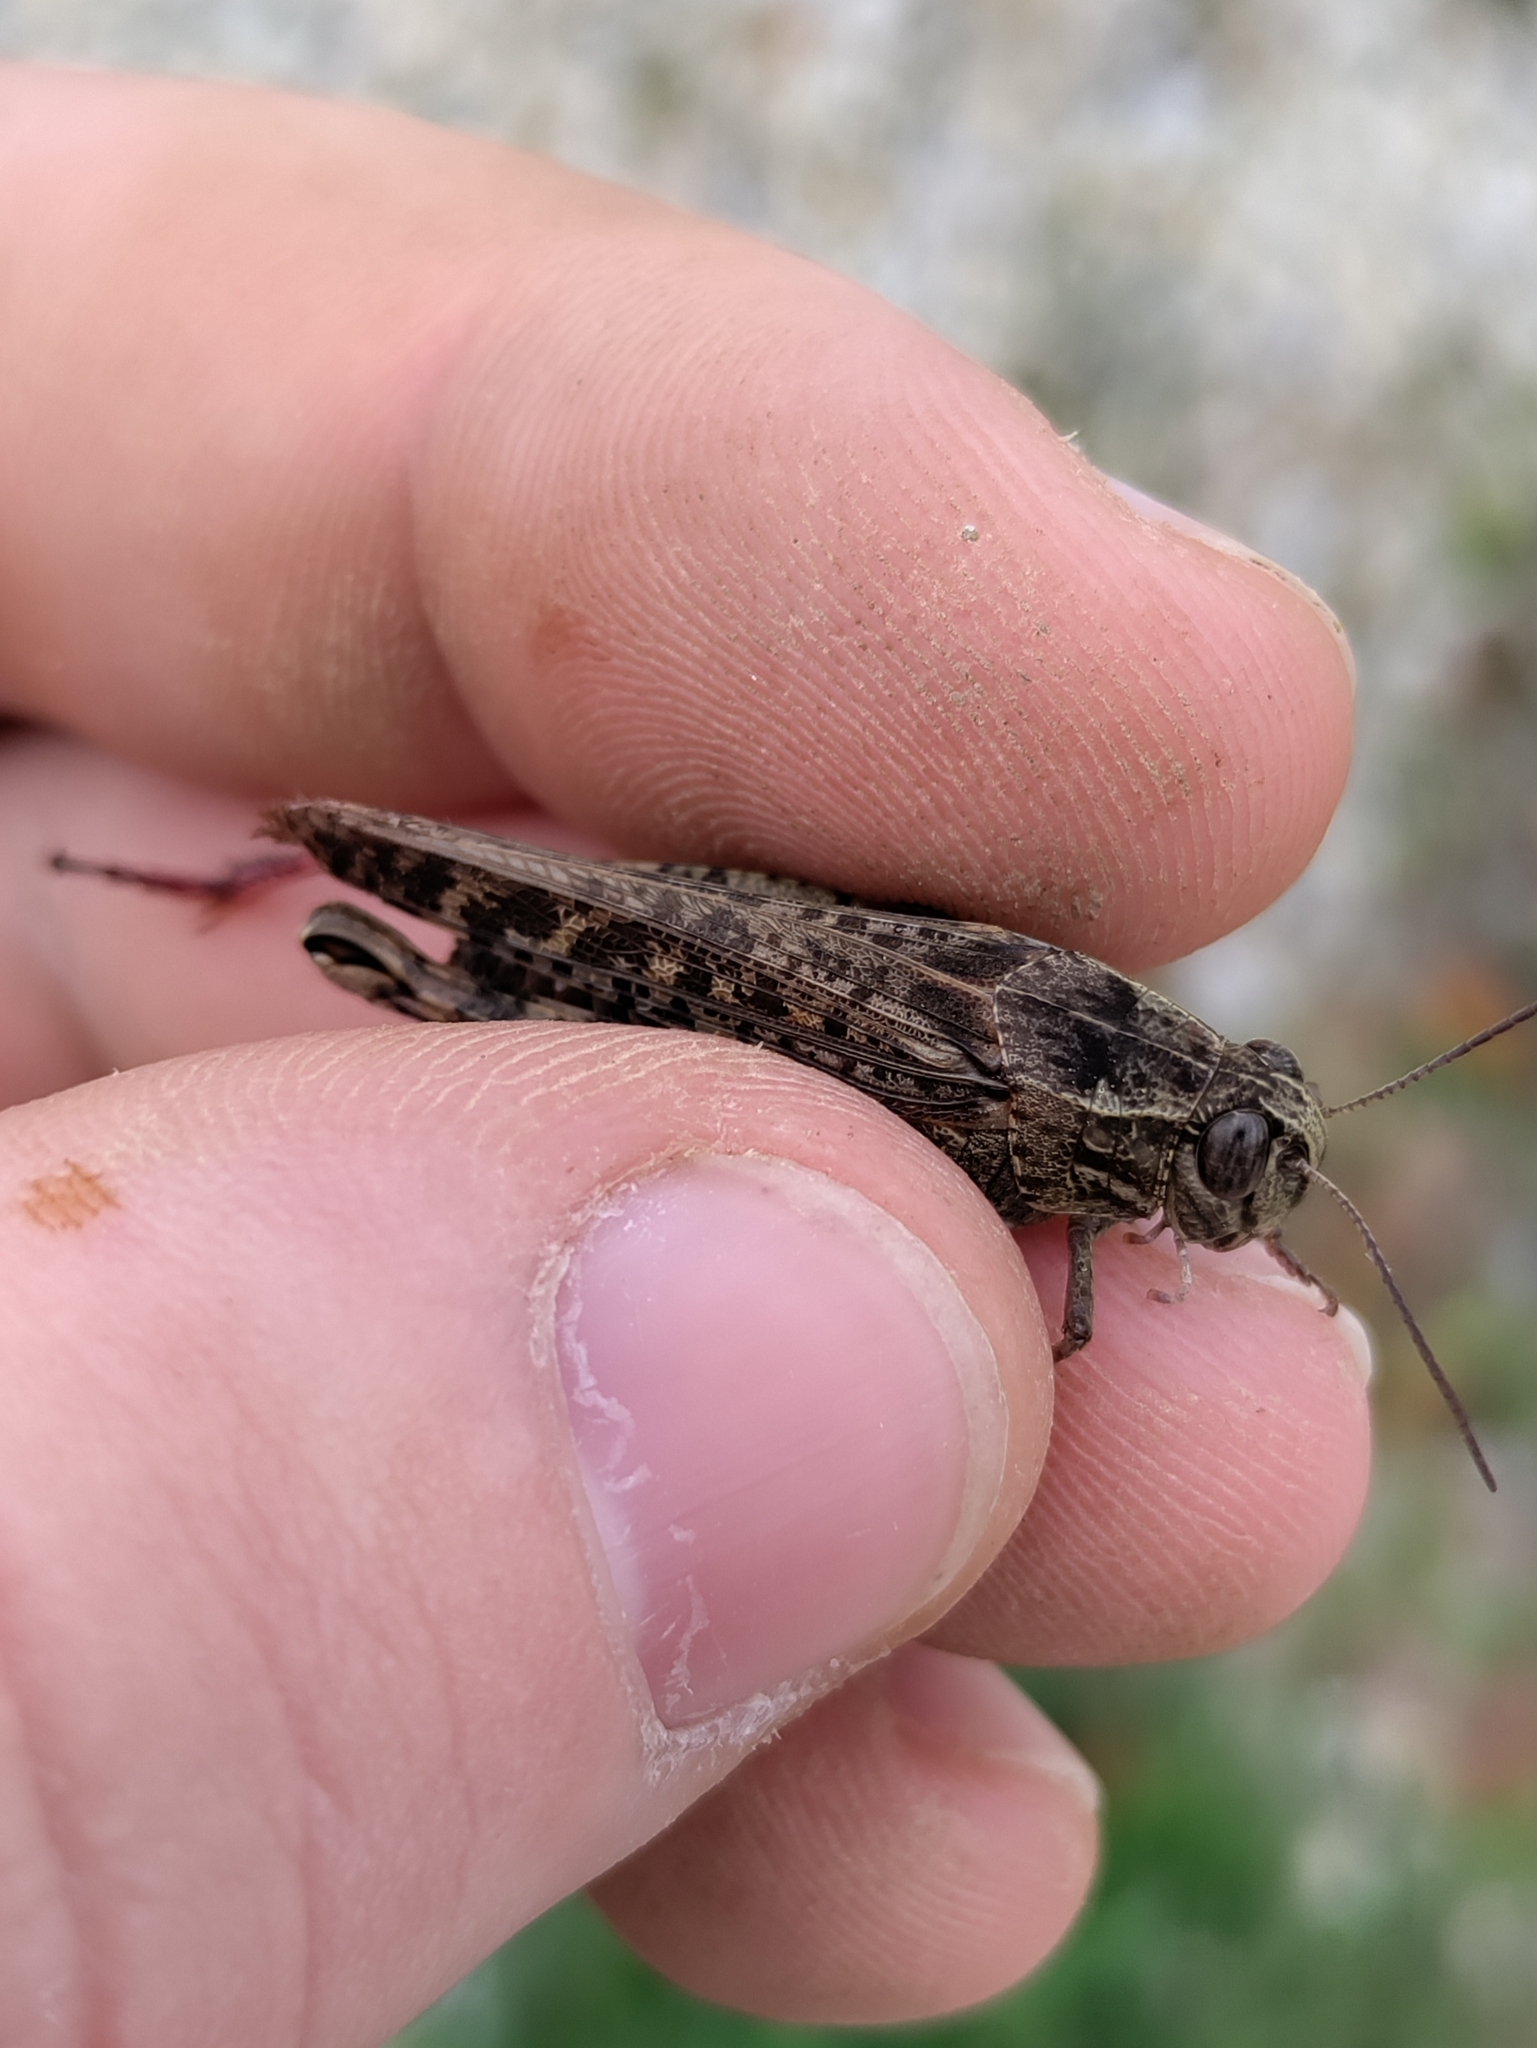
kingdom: Animalia
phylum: Arthropoda
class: Insecta
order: Orthoptera
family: Acrididae
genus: Calliptamus
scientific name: Calliptamus italicus
